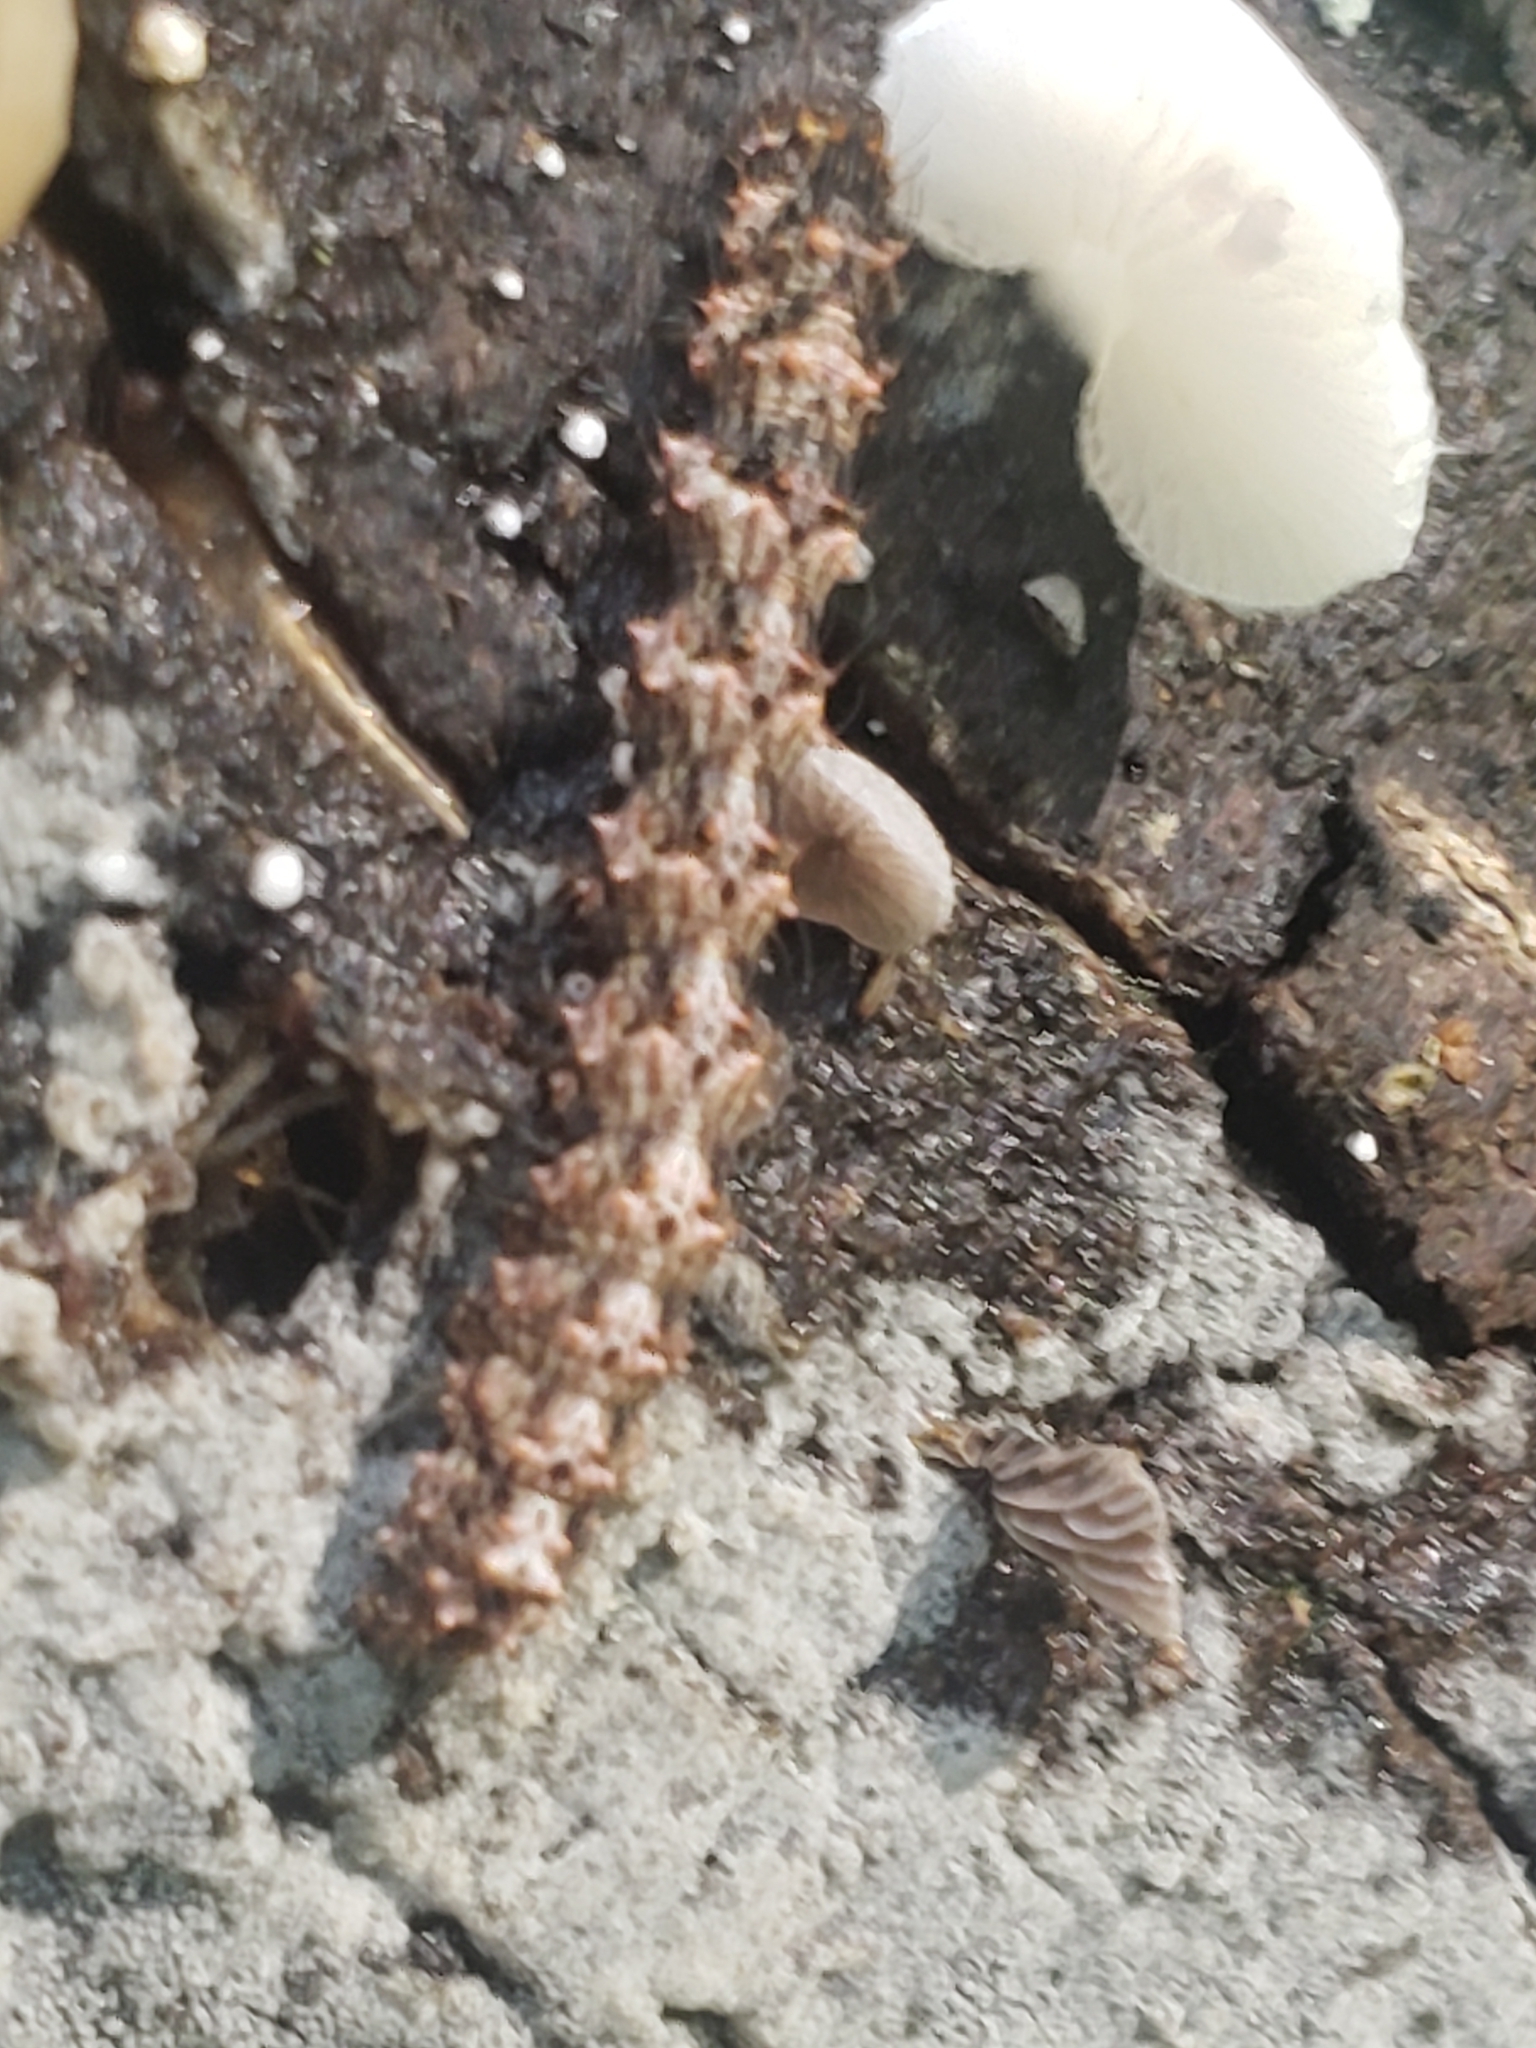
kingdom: Animalia
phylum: Arthropoda
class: Insecta
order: Lepidoptera
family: Erebidae
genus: Metalectra
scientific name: Metalectra discalis
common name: Common fungus moth
